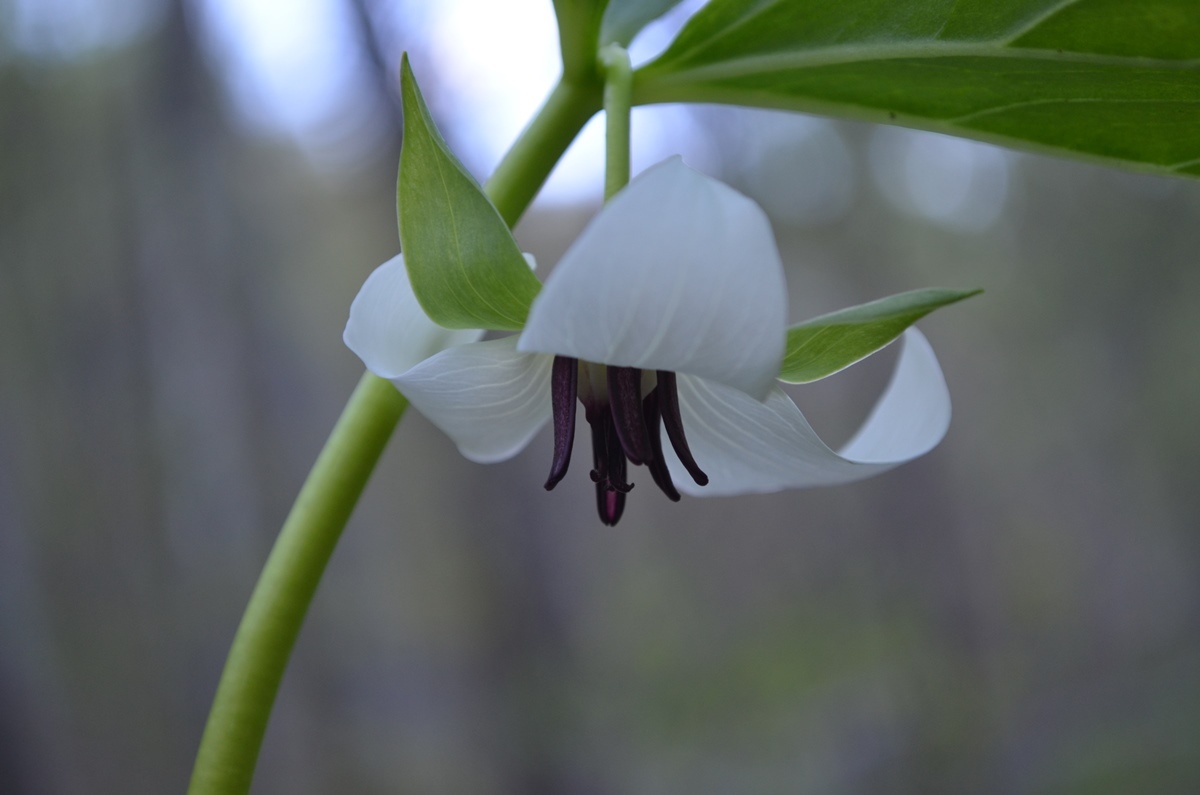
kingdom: Plantae
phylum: Tracheophyta
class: Liliopsida
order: Liliales
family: Melanthiaceae
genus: Trillium
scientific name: Trillium rugelii
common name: Ill-scented trillium
